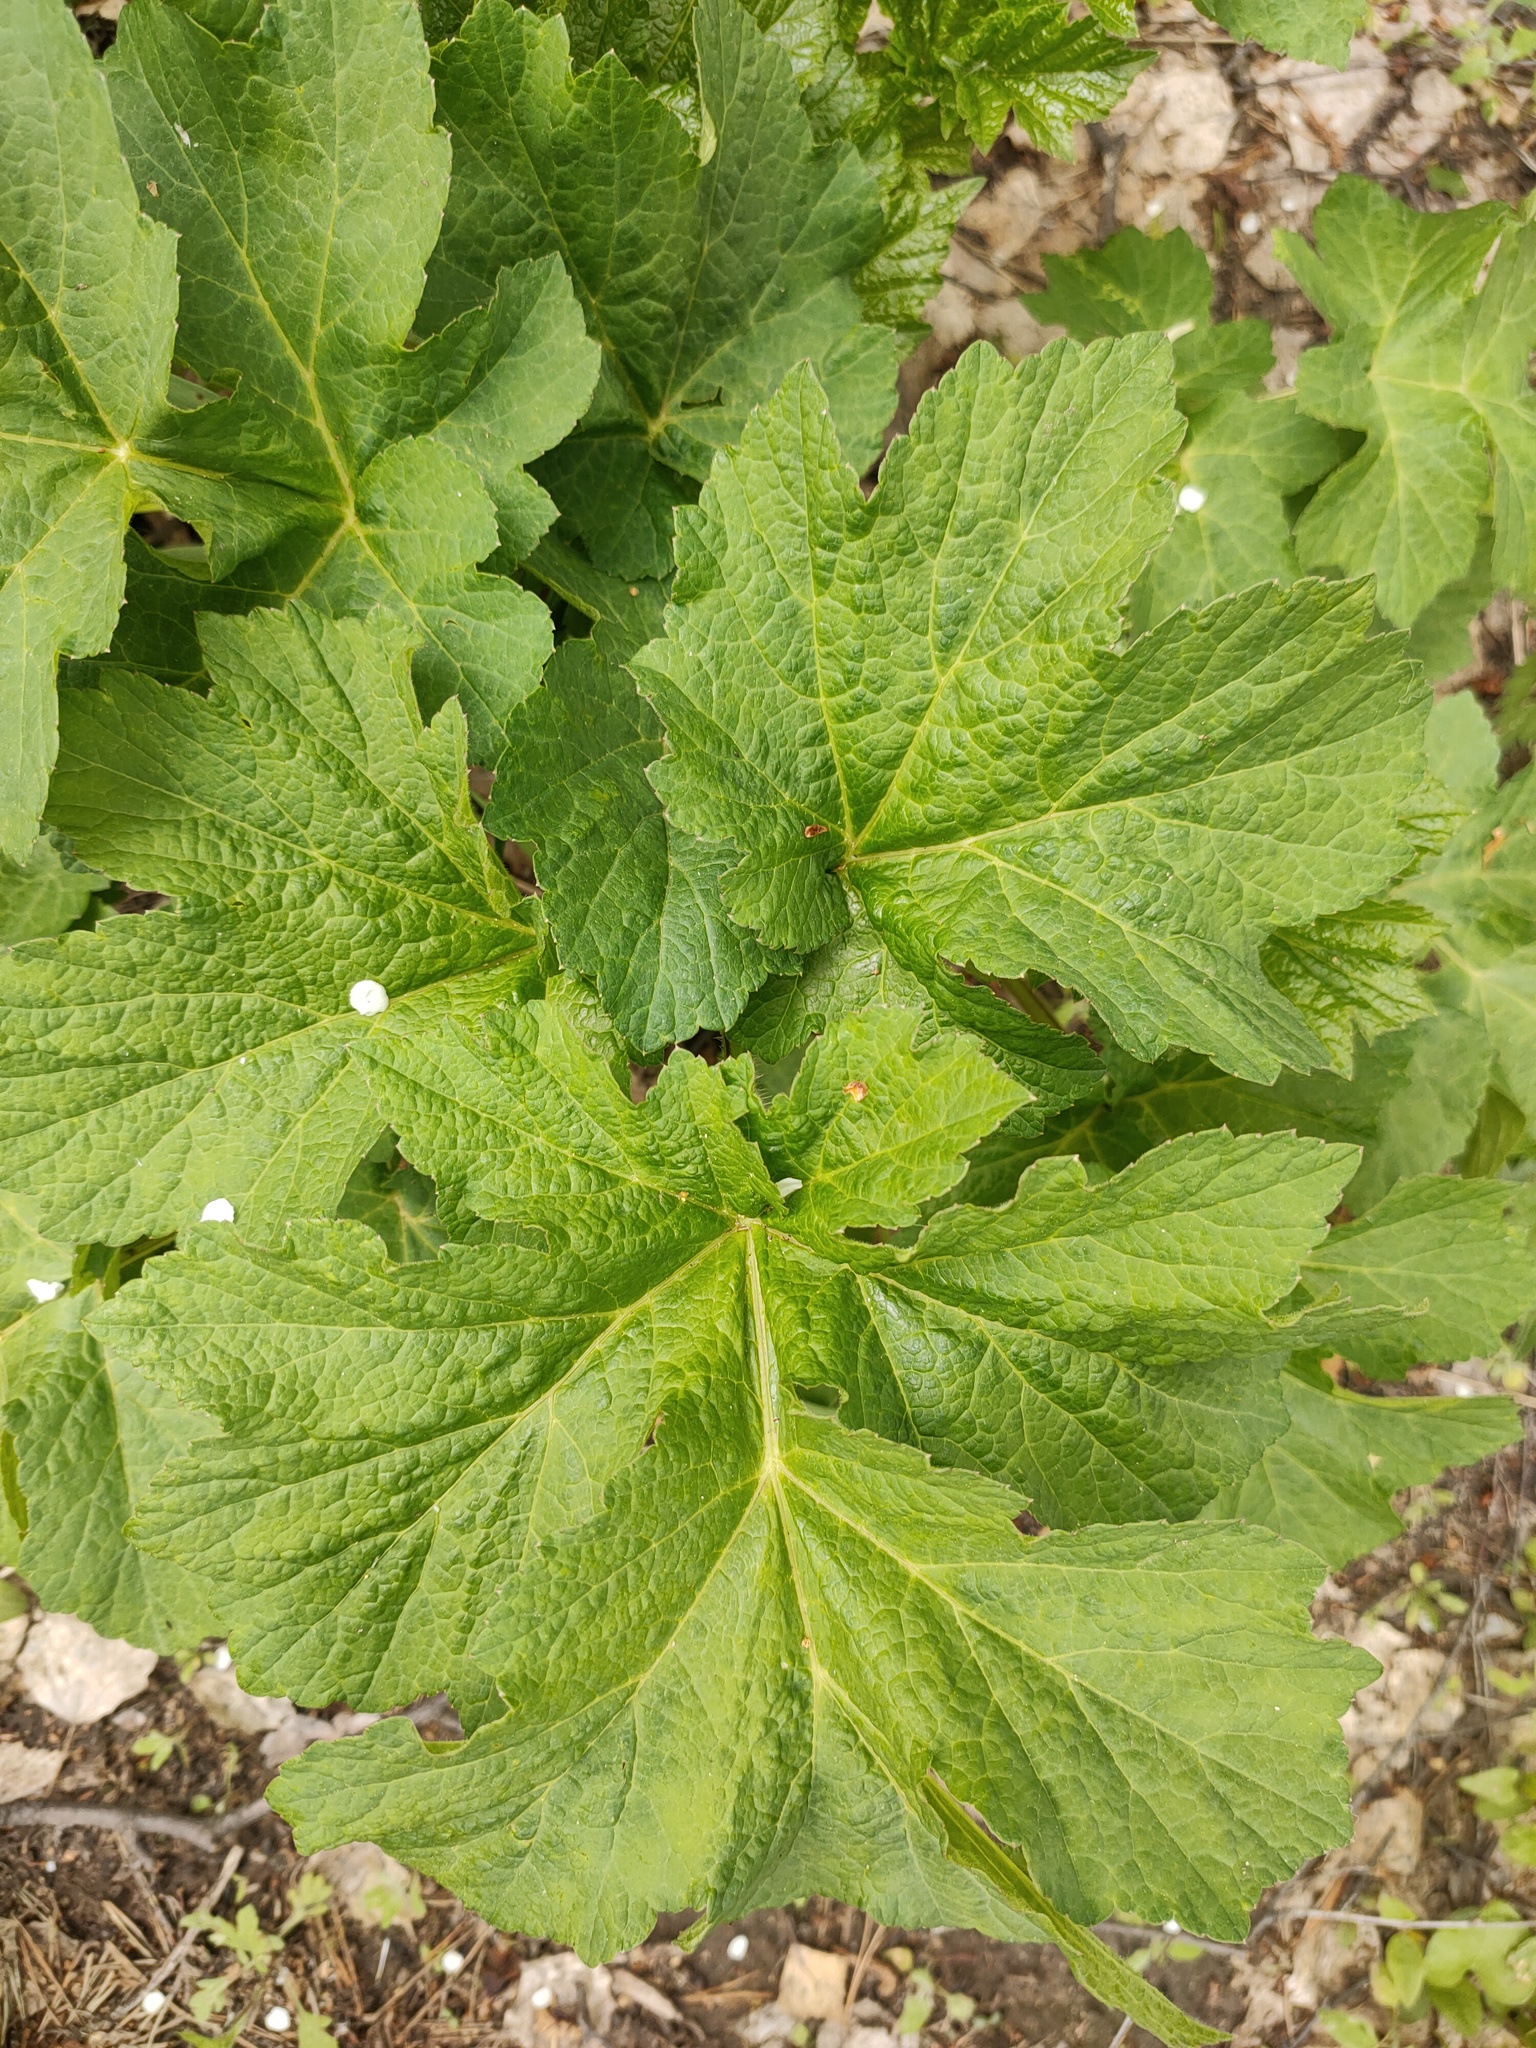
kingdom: Plantae
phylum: Tracheophyta
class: Magnoliopsida
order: Apiales
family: Apiaceae
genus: Heracleum
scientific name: Heracleum sphondylium
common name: Hogweed
